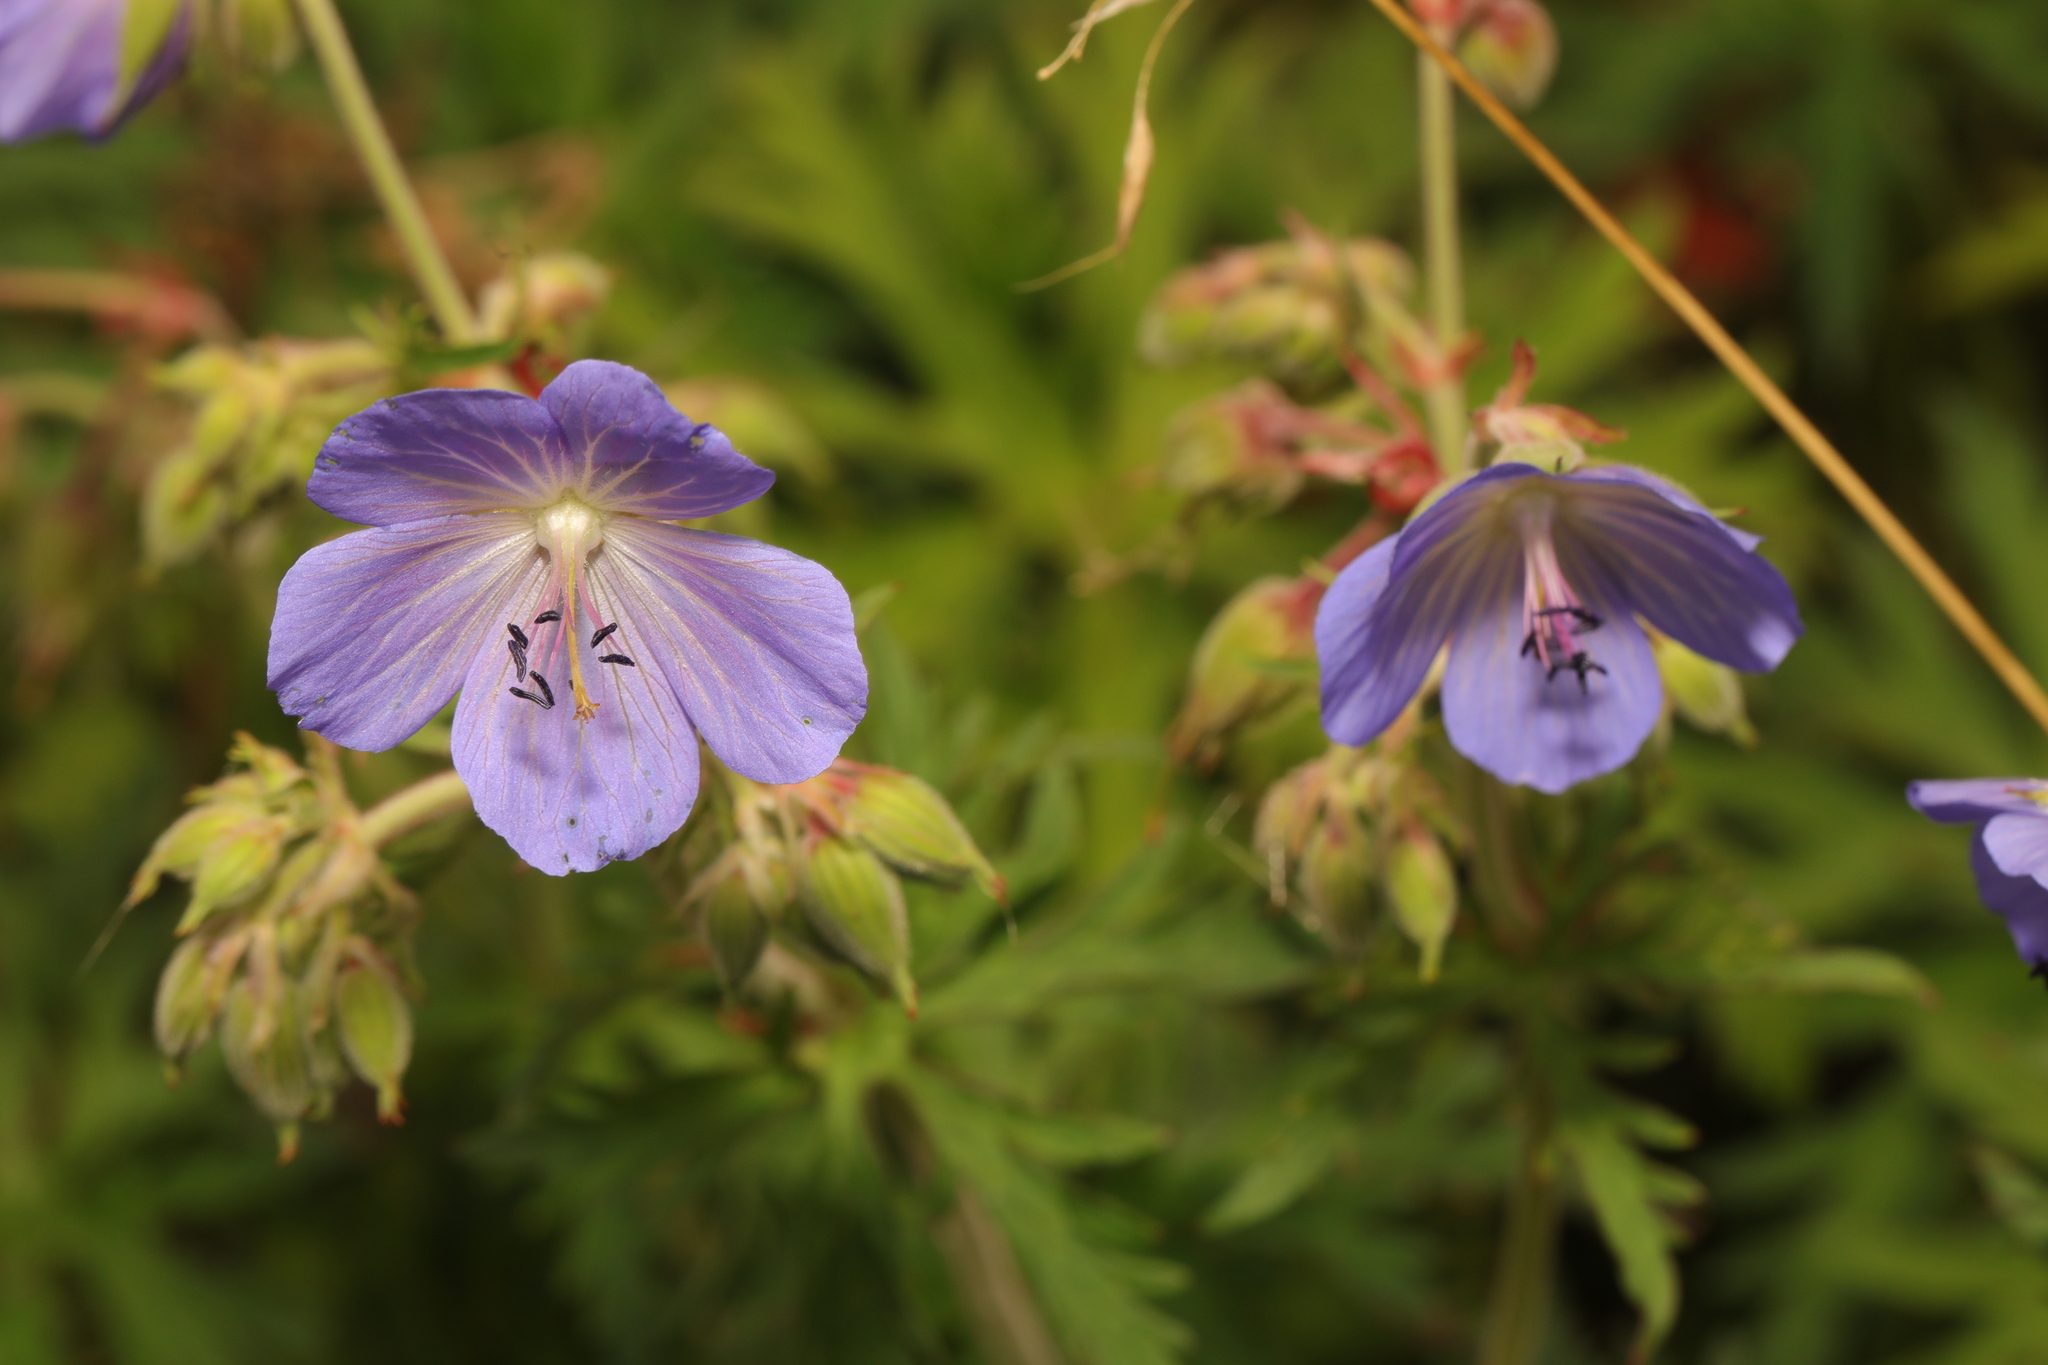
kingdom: Plantae
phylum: Tracheophyta
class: Magnoliopsida
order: Geraniales
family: Geraniaceae
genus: Geranium
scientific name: Geranium pratense
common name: Meadow crane's-bill
